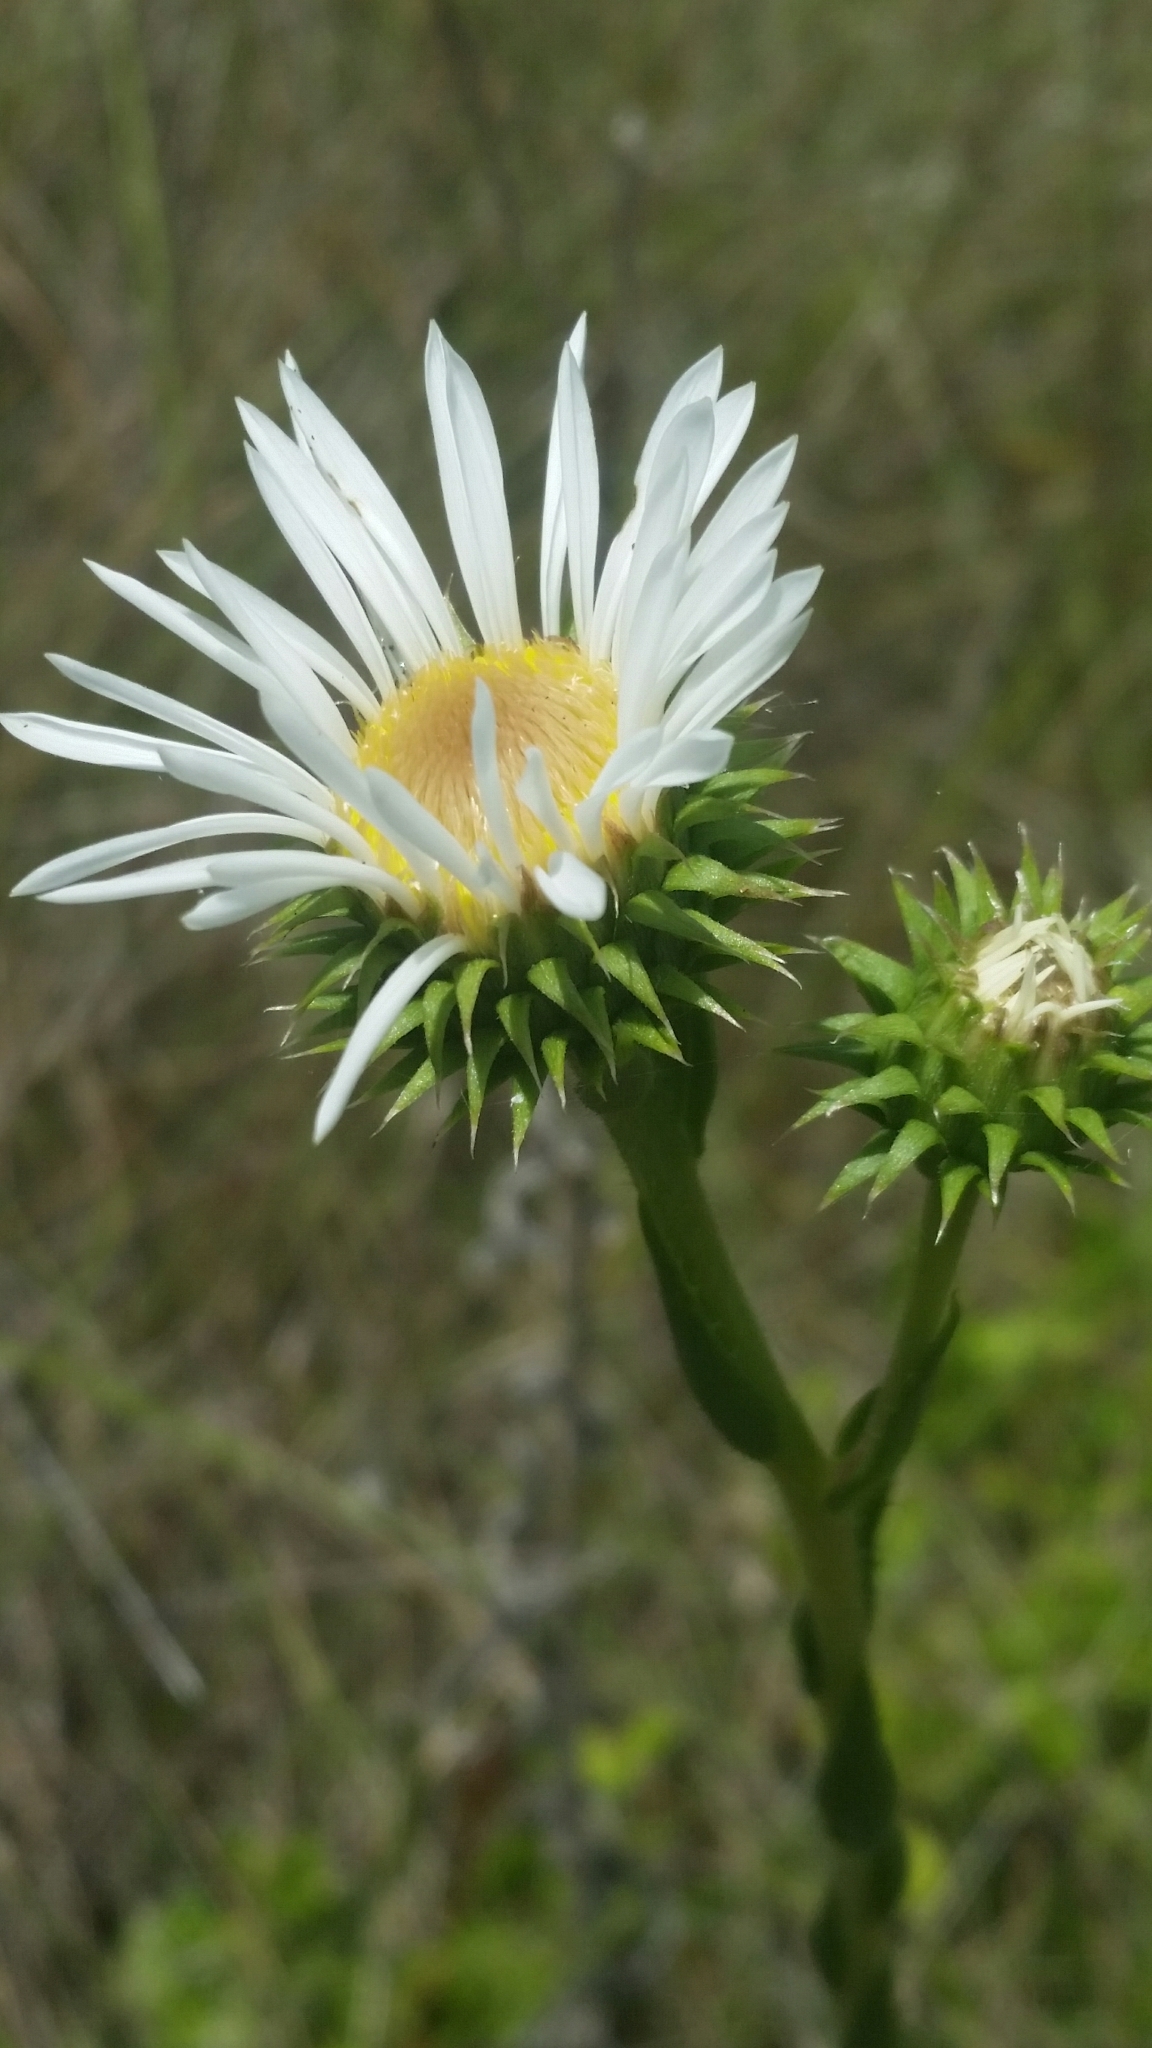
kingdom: Plantae
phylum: Tracheophyta
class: Magnoliopsida
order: Asterales
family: Asteraceae
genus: Eurybia
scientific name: Eurybia eryngiifolia
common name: Thistle-leaf aster
